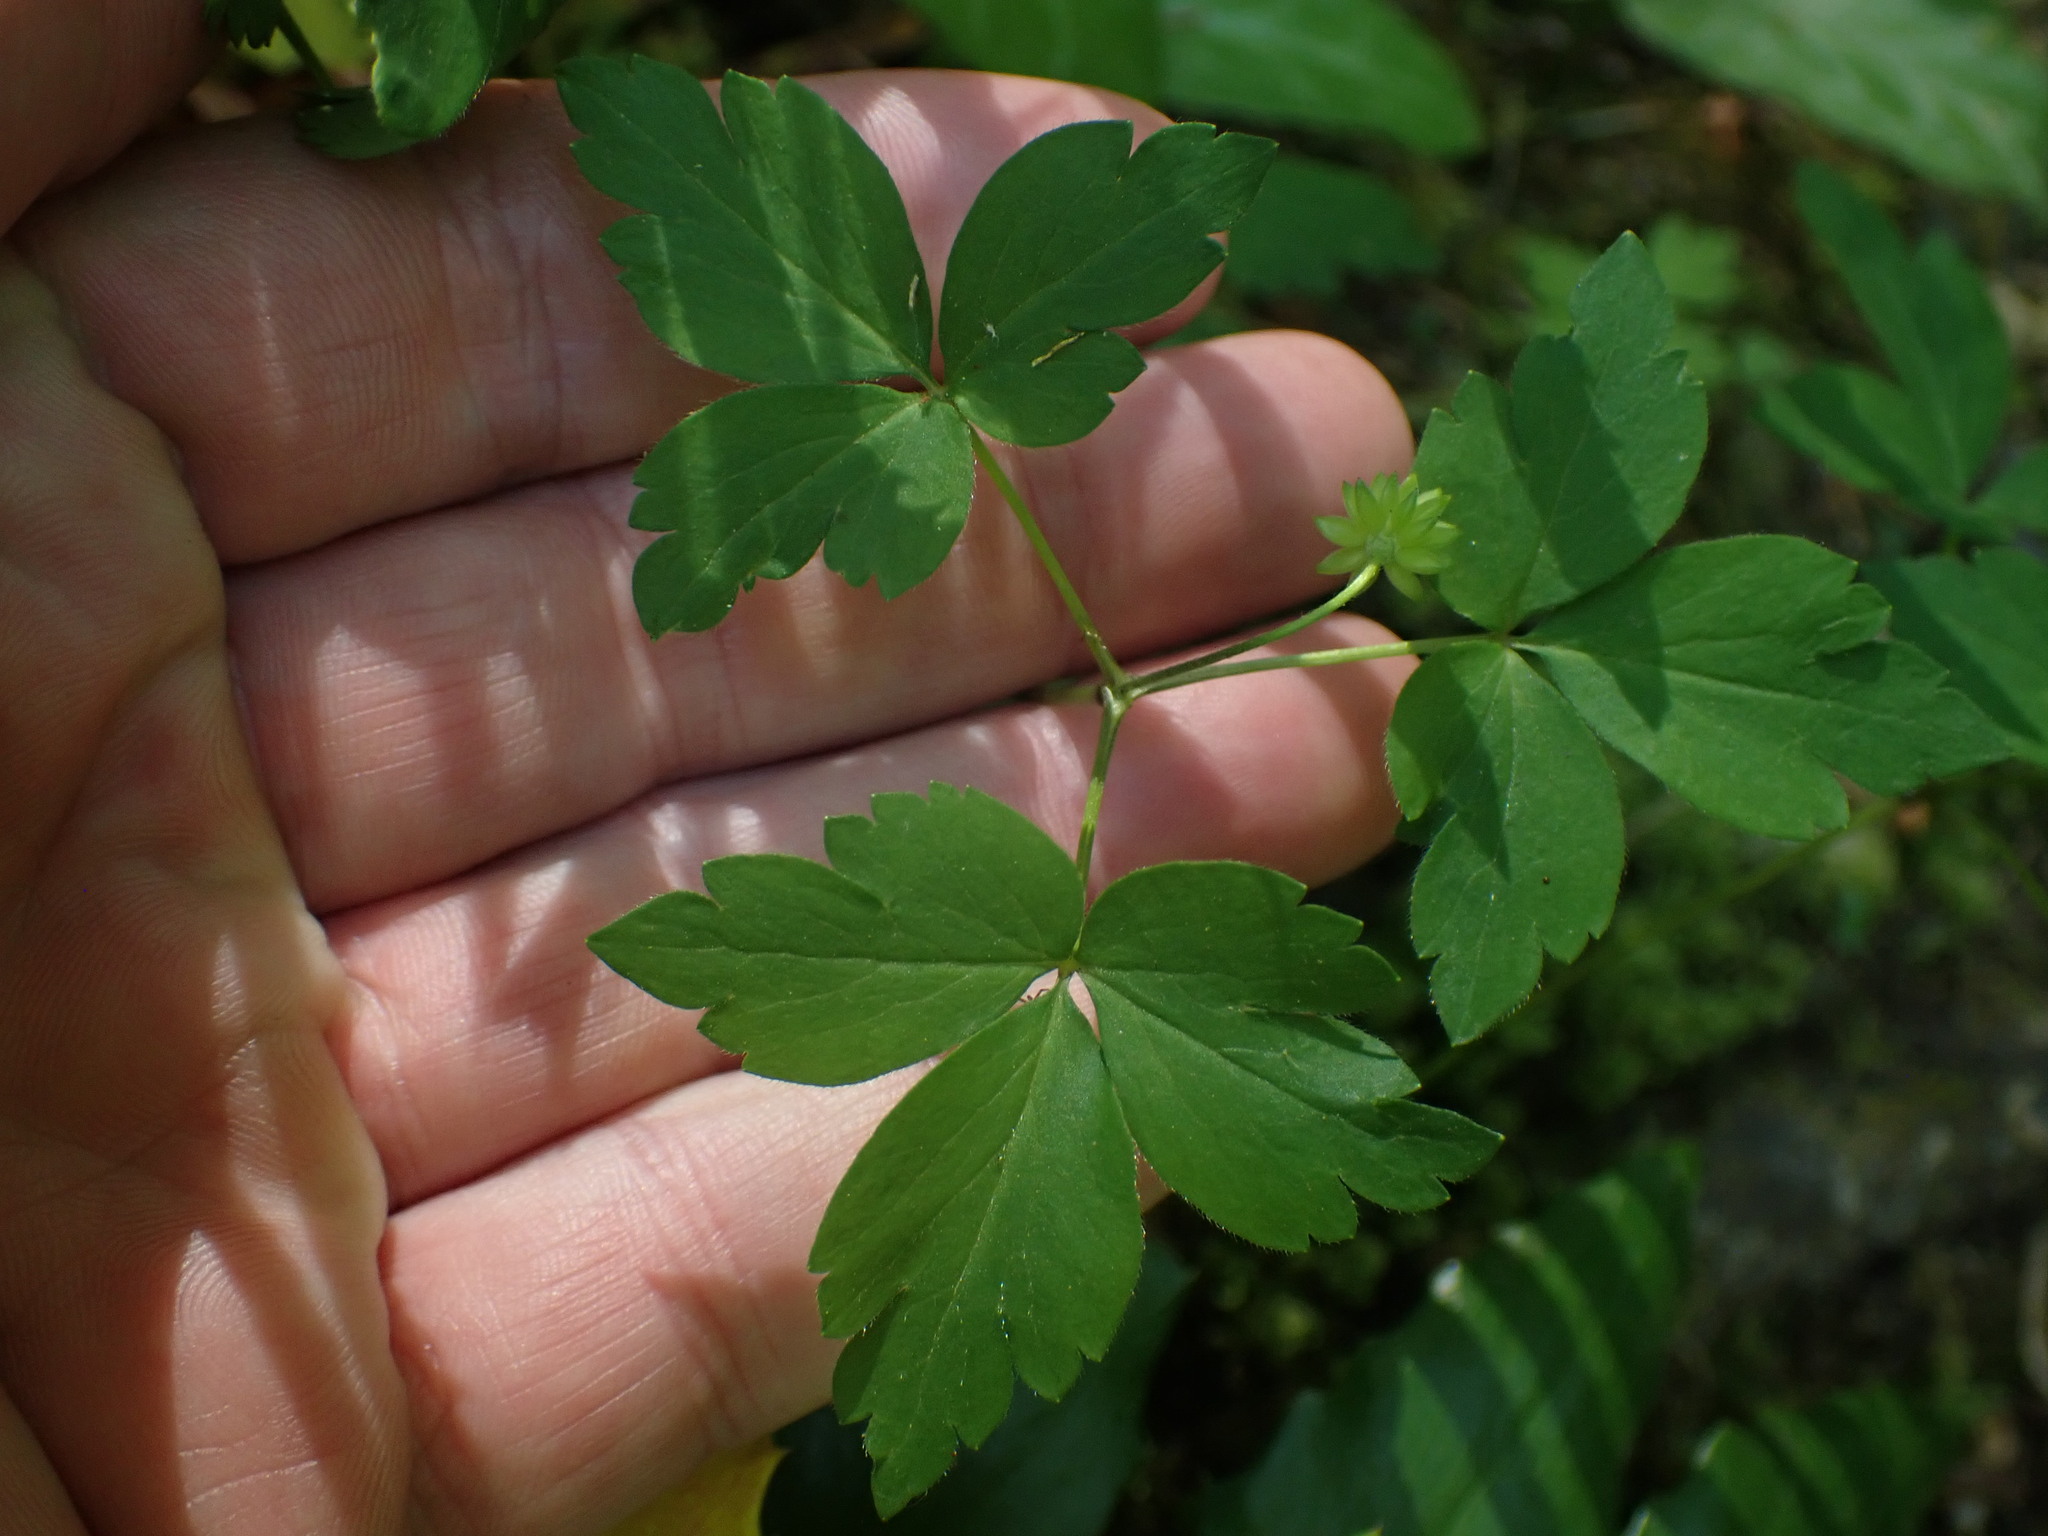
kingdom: Plantae
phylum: Tracheophyta
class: Magnoliopsida
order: Ranunculales
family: Ranunculaceae
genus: Anemone
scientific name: Anemone
